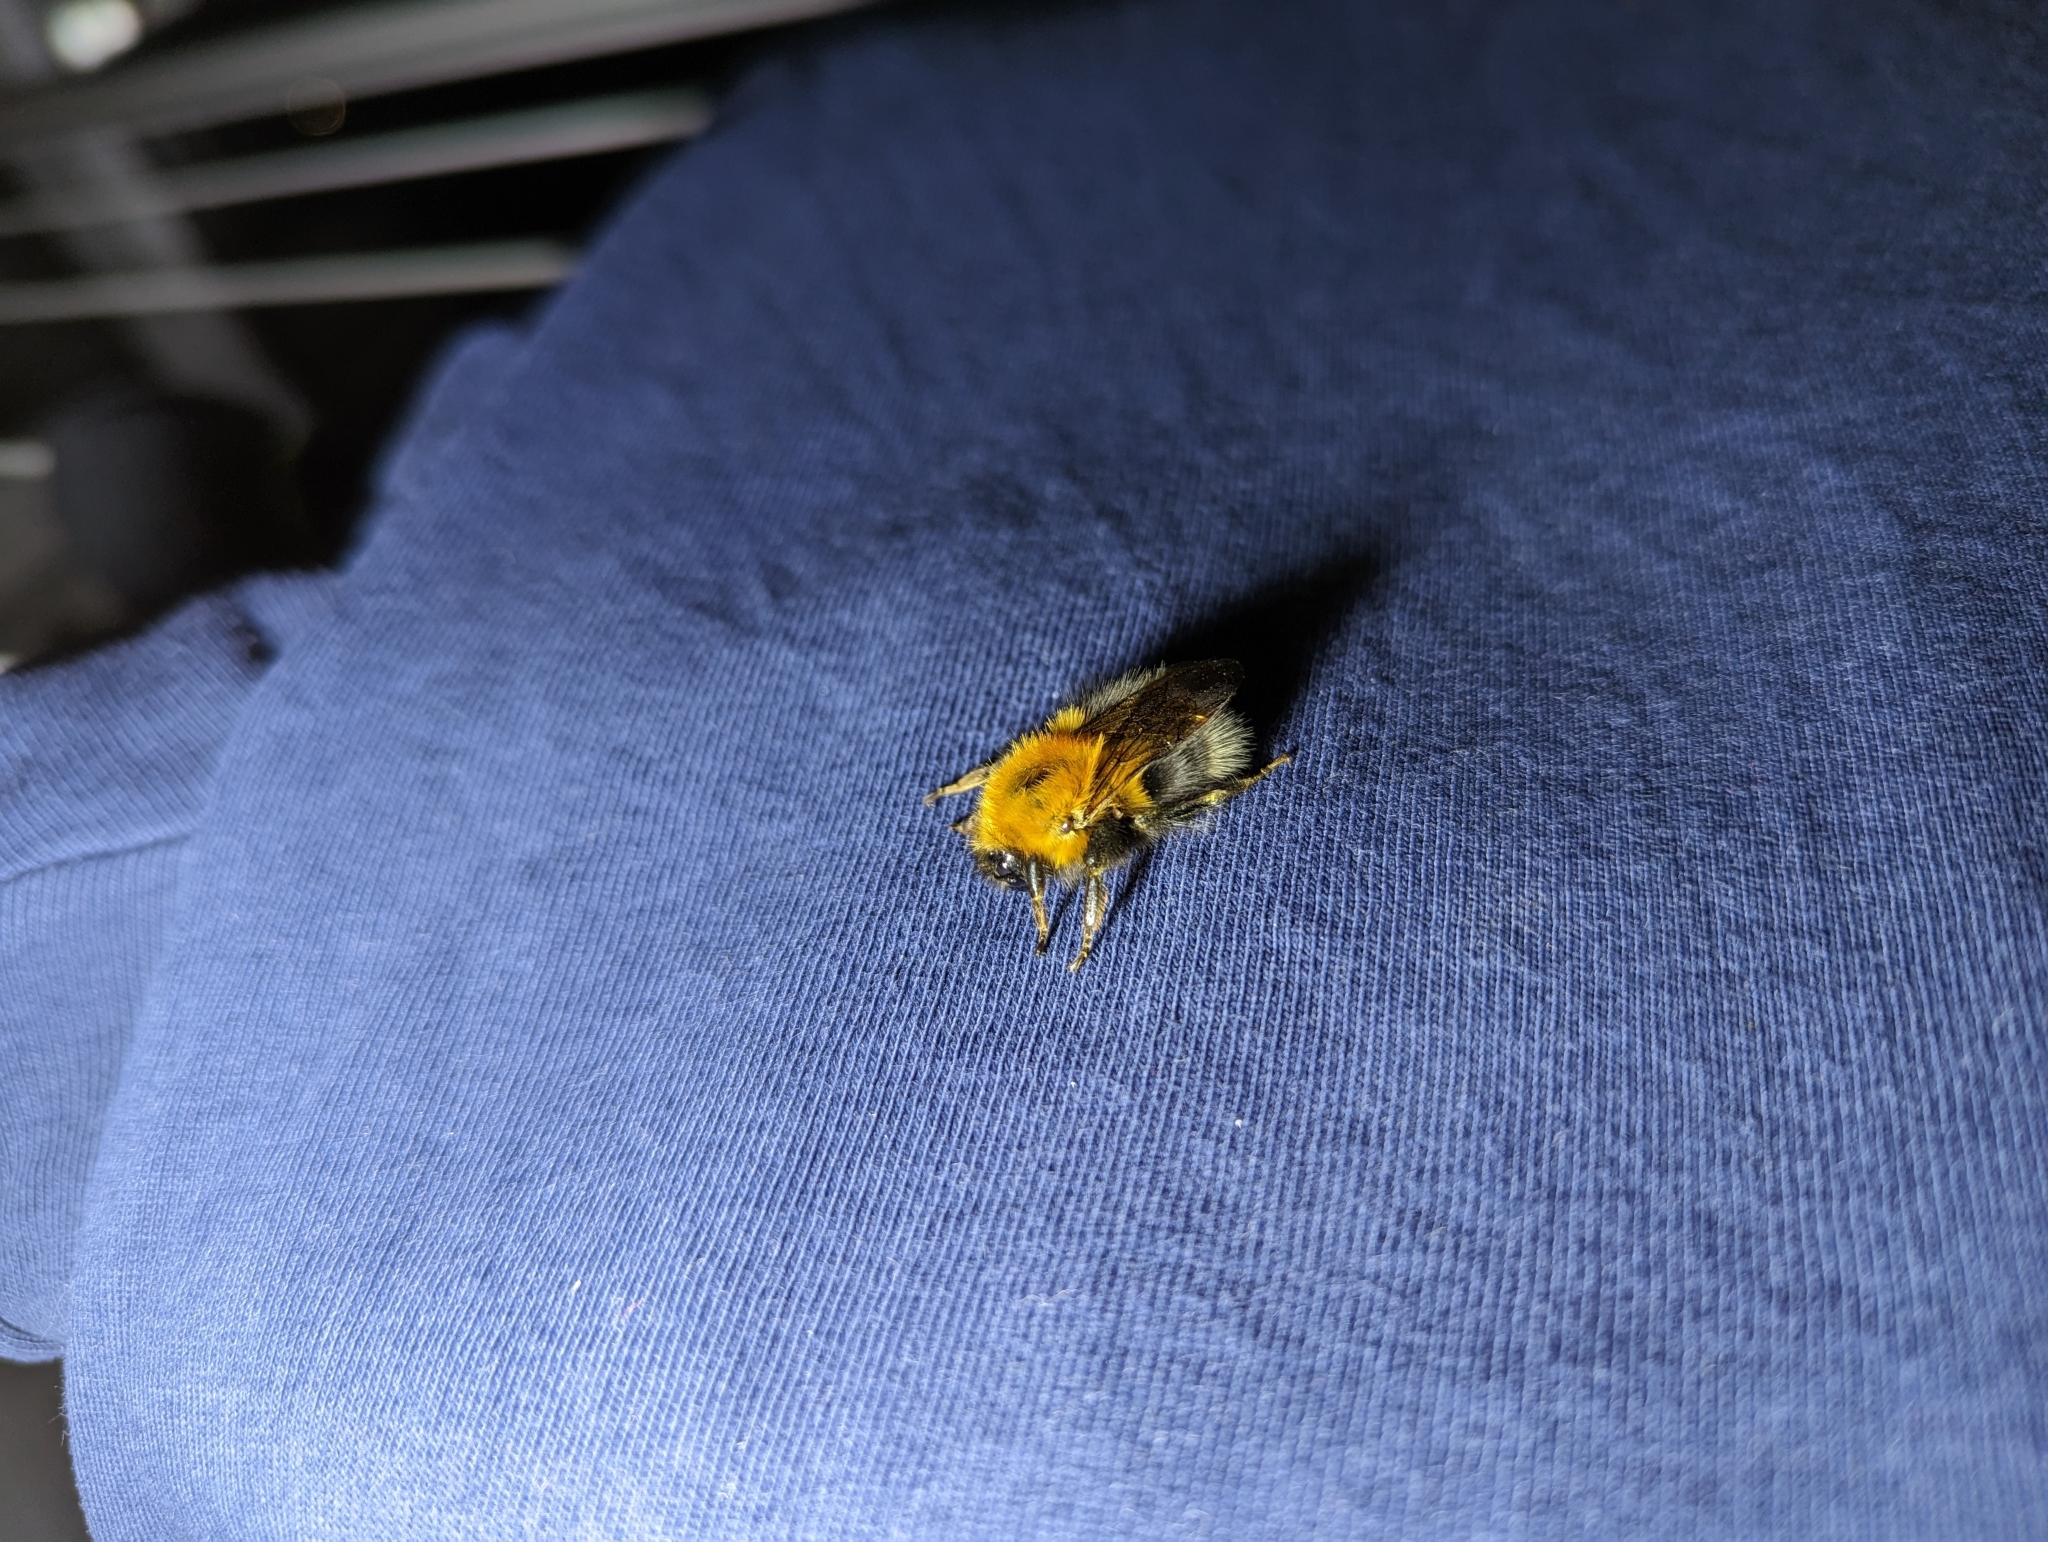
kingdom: Animalia
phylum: Arthropoda
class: Insecta
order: Hymenoptera
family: Apidae
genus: Bombus
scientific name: Bombus hypnorum
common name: New garden bumblebee
